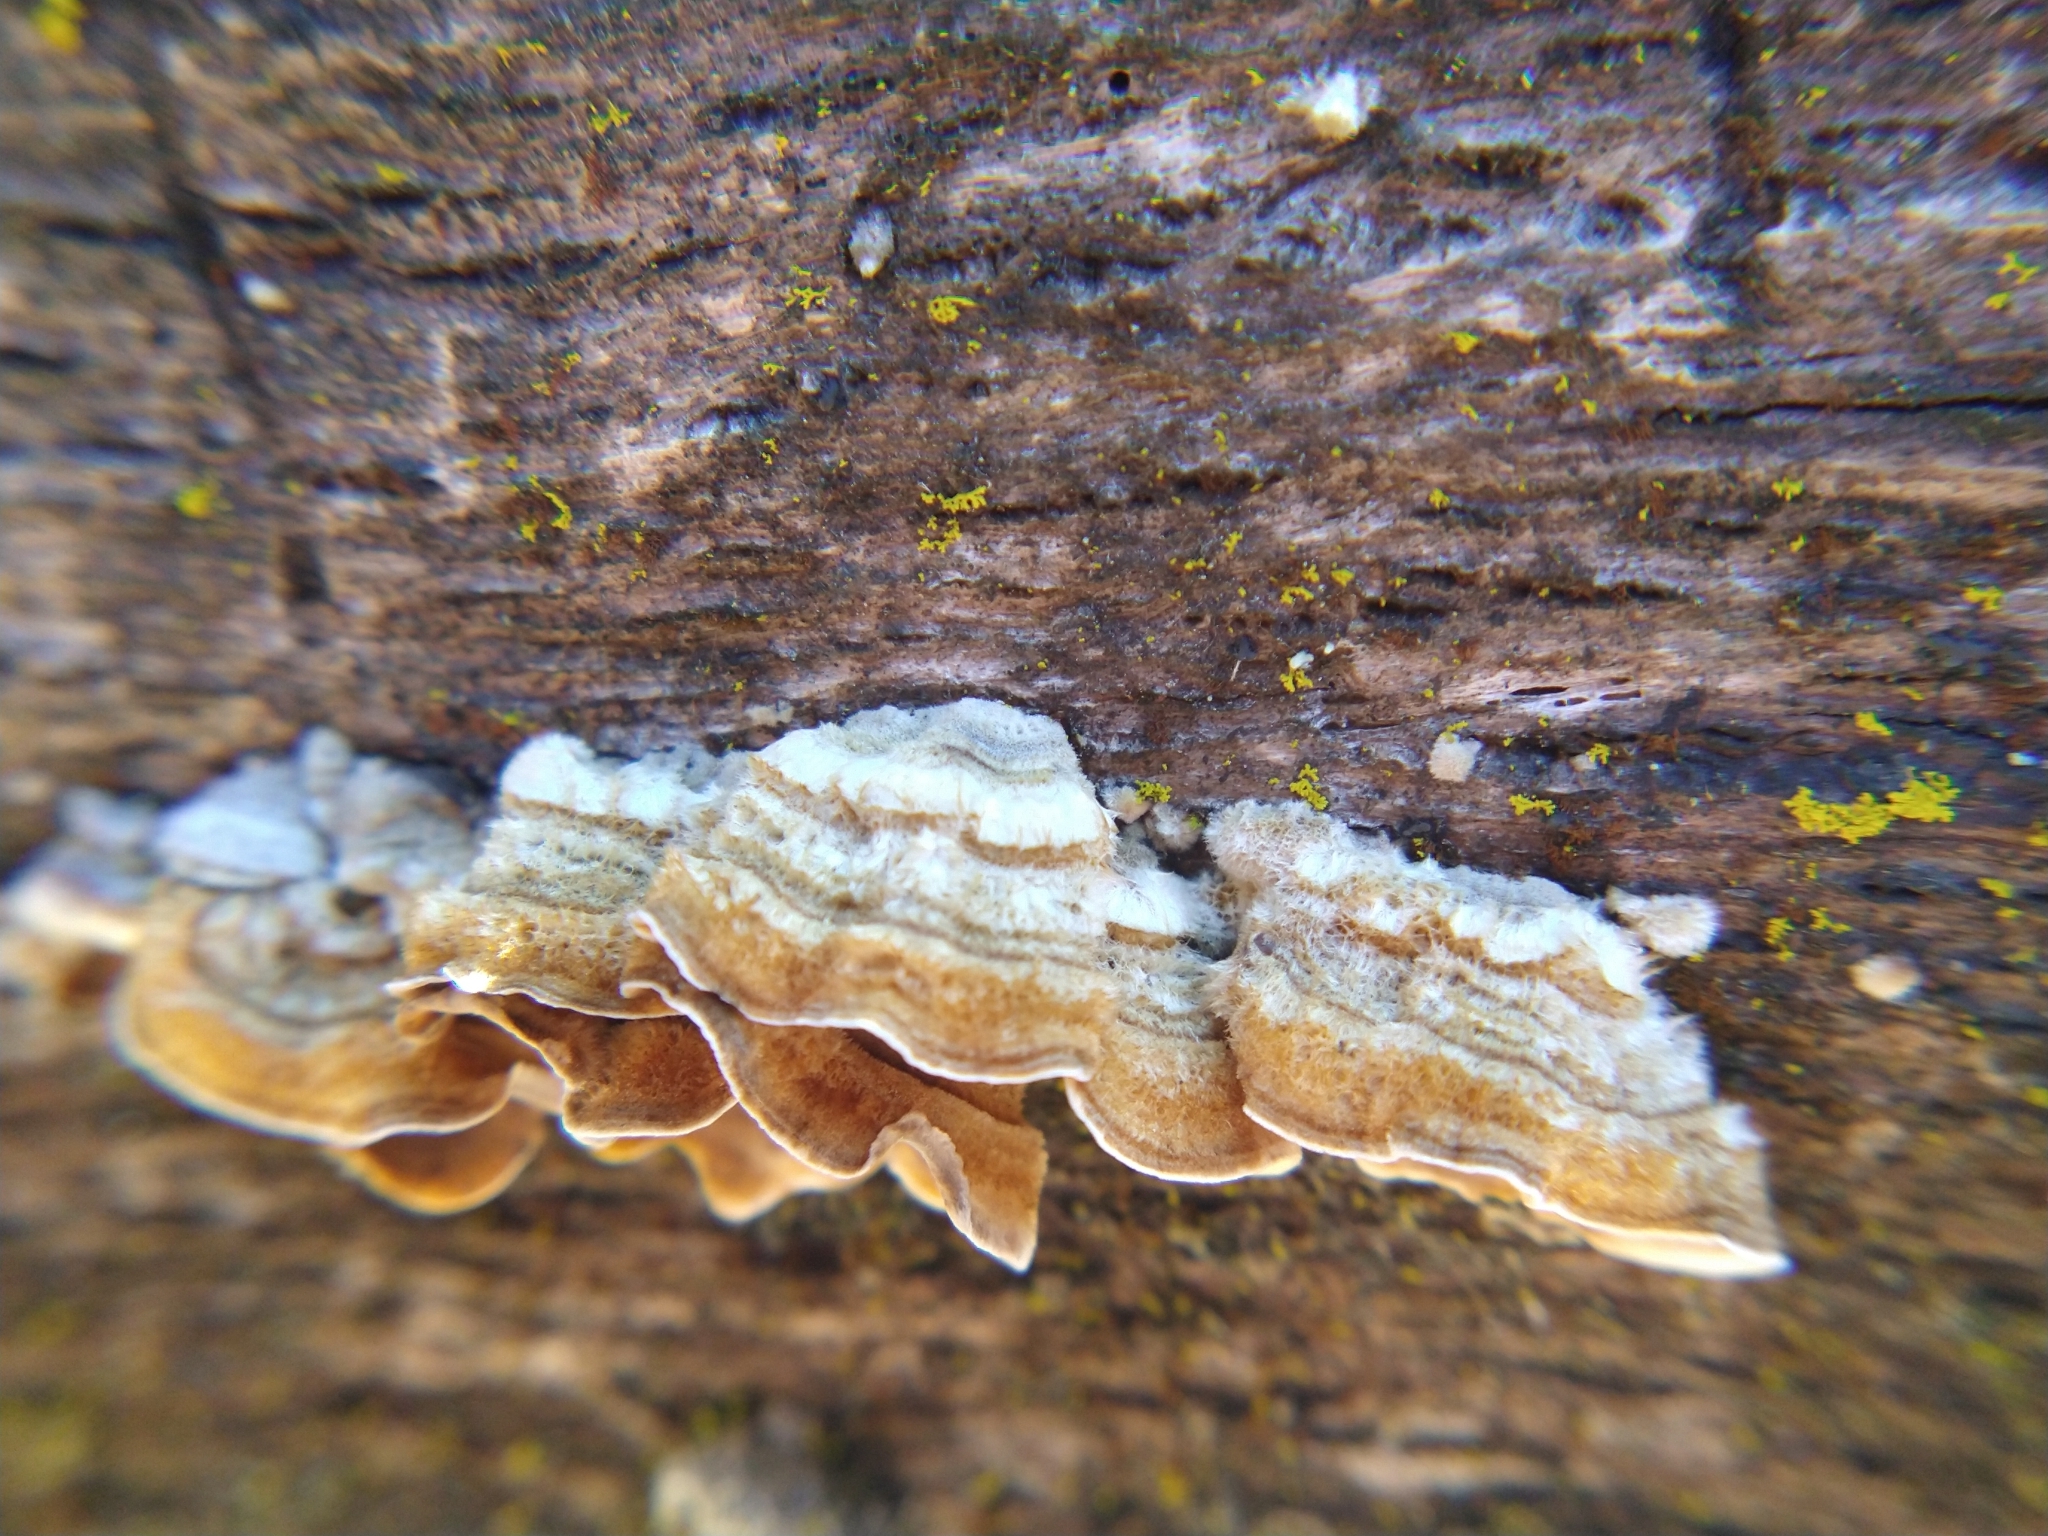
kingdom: Fungi
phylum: Basidiomycota
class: Agaricomycetes
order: Russulales
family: Stereaceae
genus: Stereum
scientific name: Stereum hirsutum
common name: Hairy curtain crust
